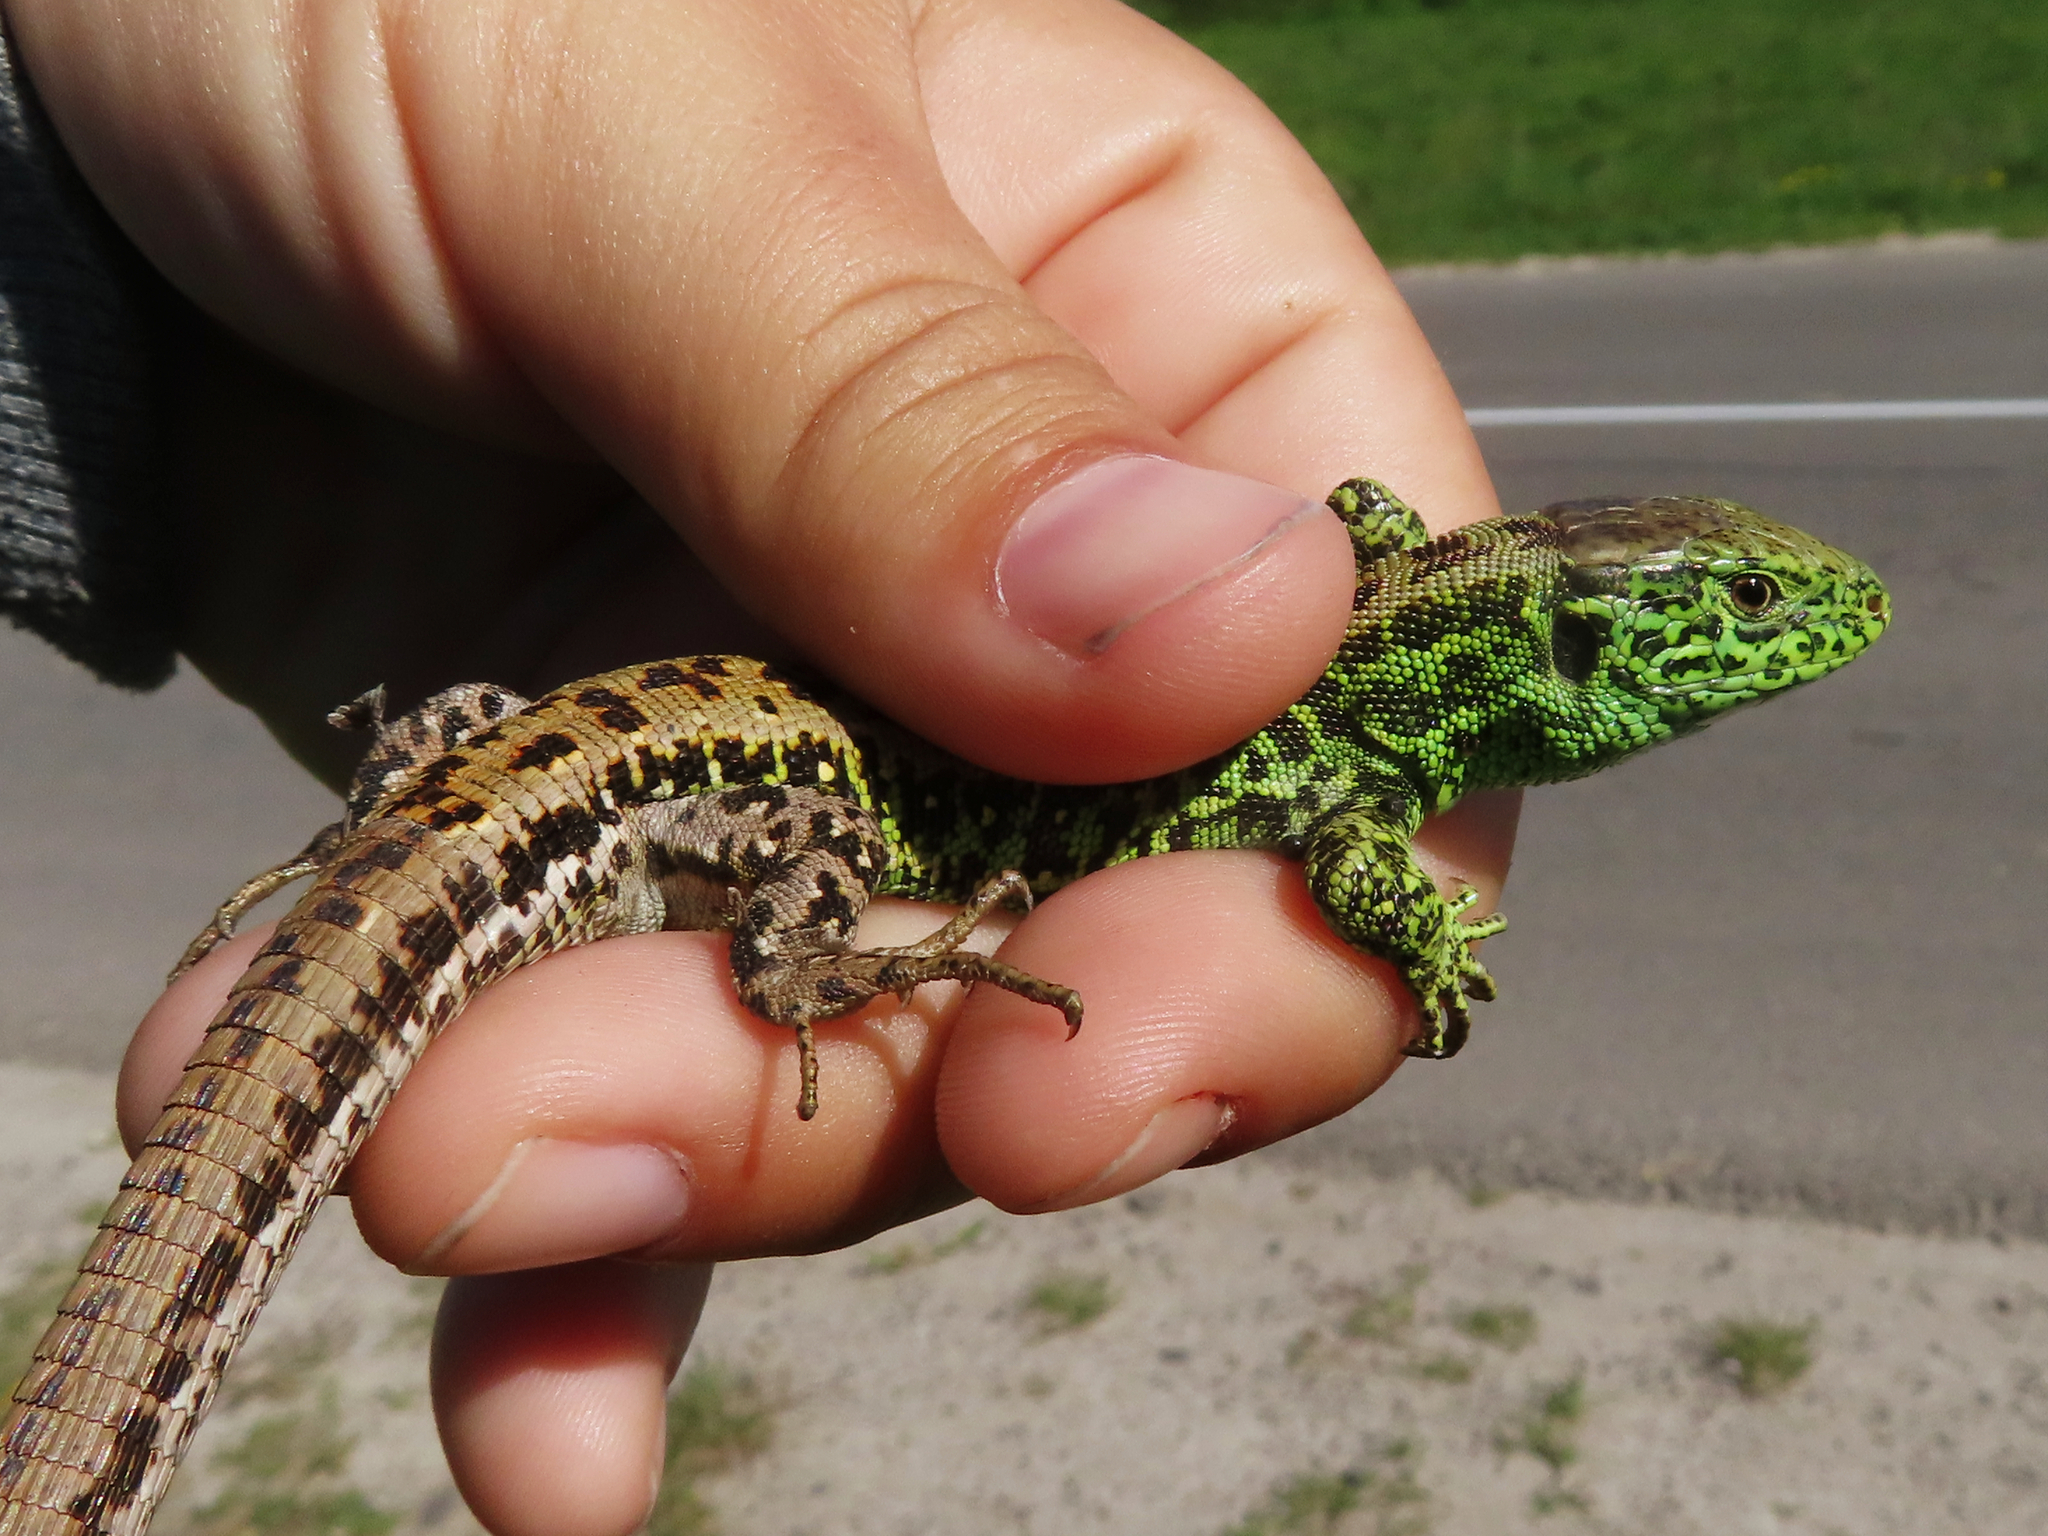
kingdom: Animalia
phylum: Chordata
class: Squamata
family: Lacertidae
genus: Lacerta
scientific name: Lacerta agilis
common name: Sand lizard
